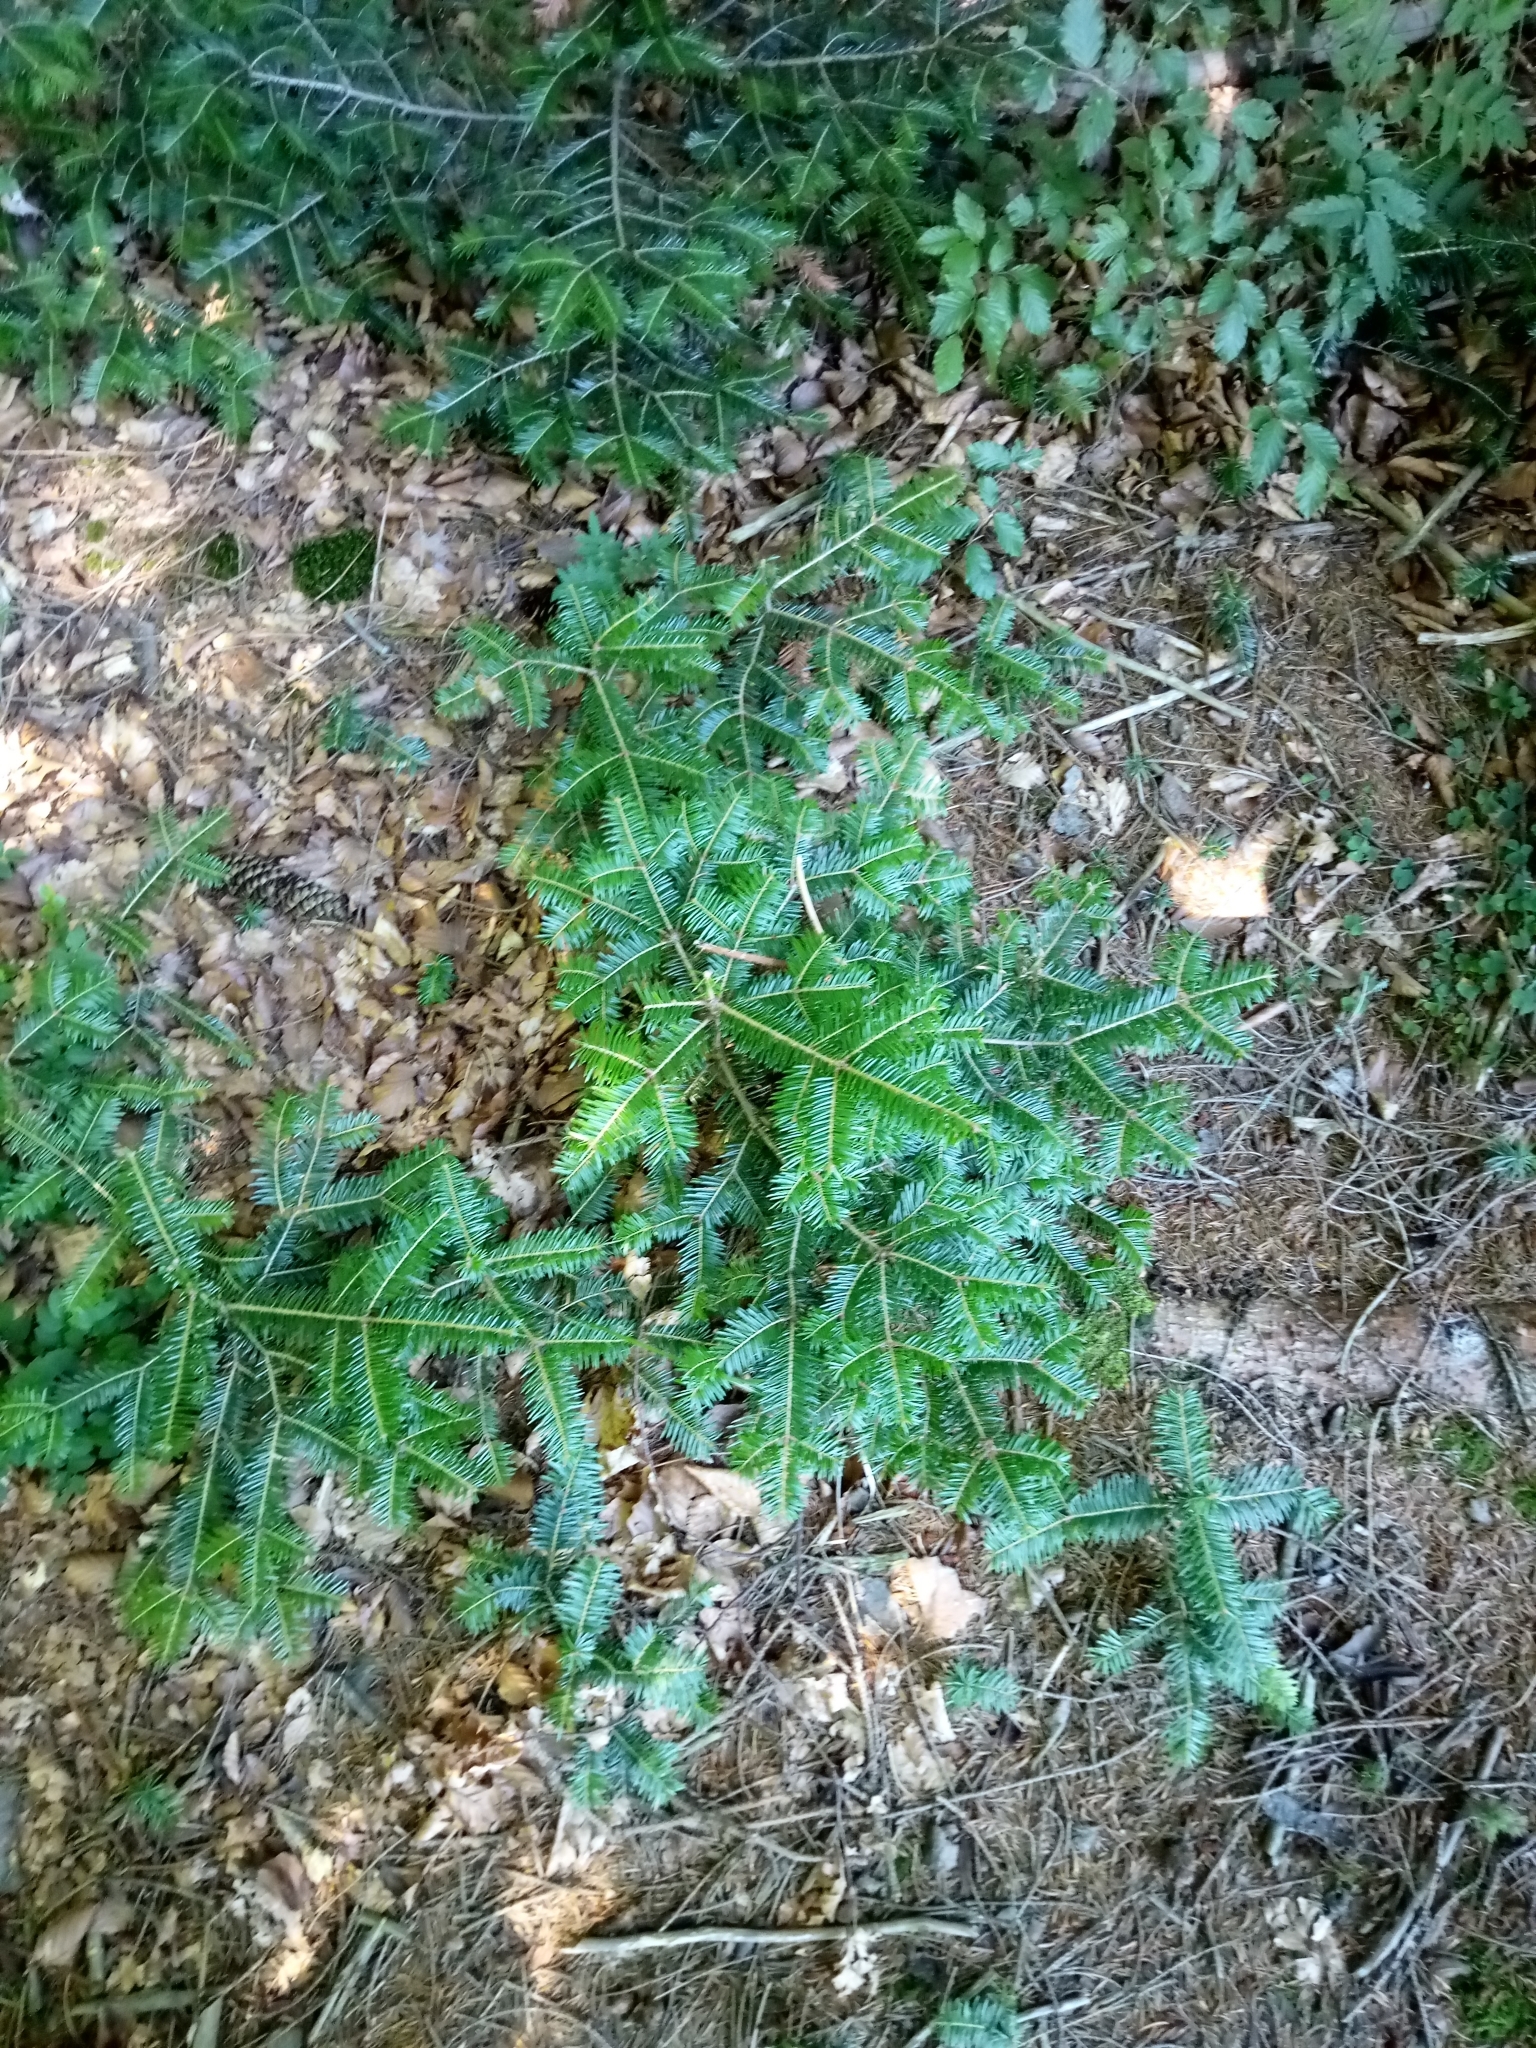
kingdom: Plantae
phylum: Tracheophyta
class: Pinopsida
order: Pinales
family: Pinaceae
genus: Abies
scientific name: Abies alba
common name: Silver fir
